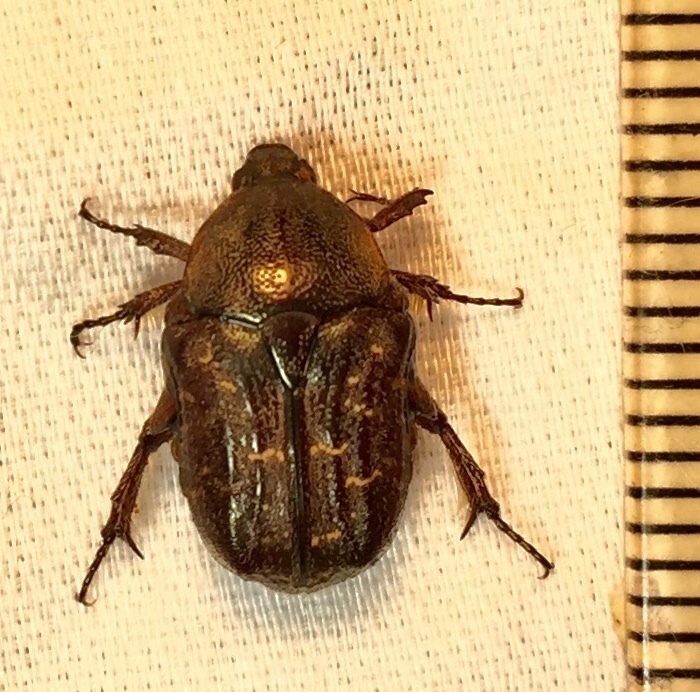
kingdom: Animalia
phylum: Arthropoda
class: Insecta
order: Coleoptera
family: Scarabaeidae
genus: Euphoria
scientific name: Euphoria sepulcralis
